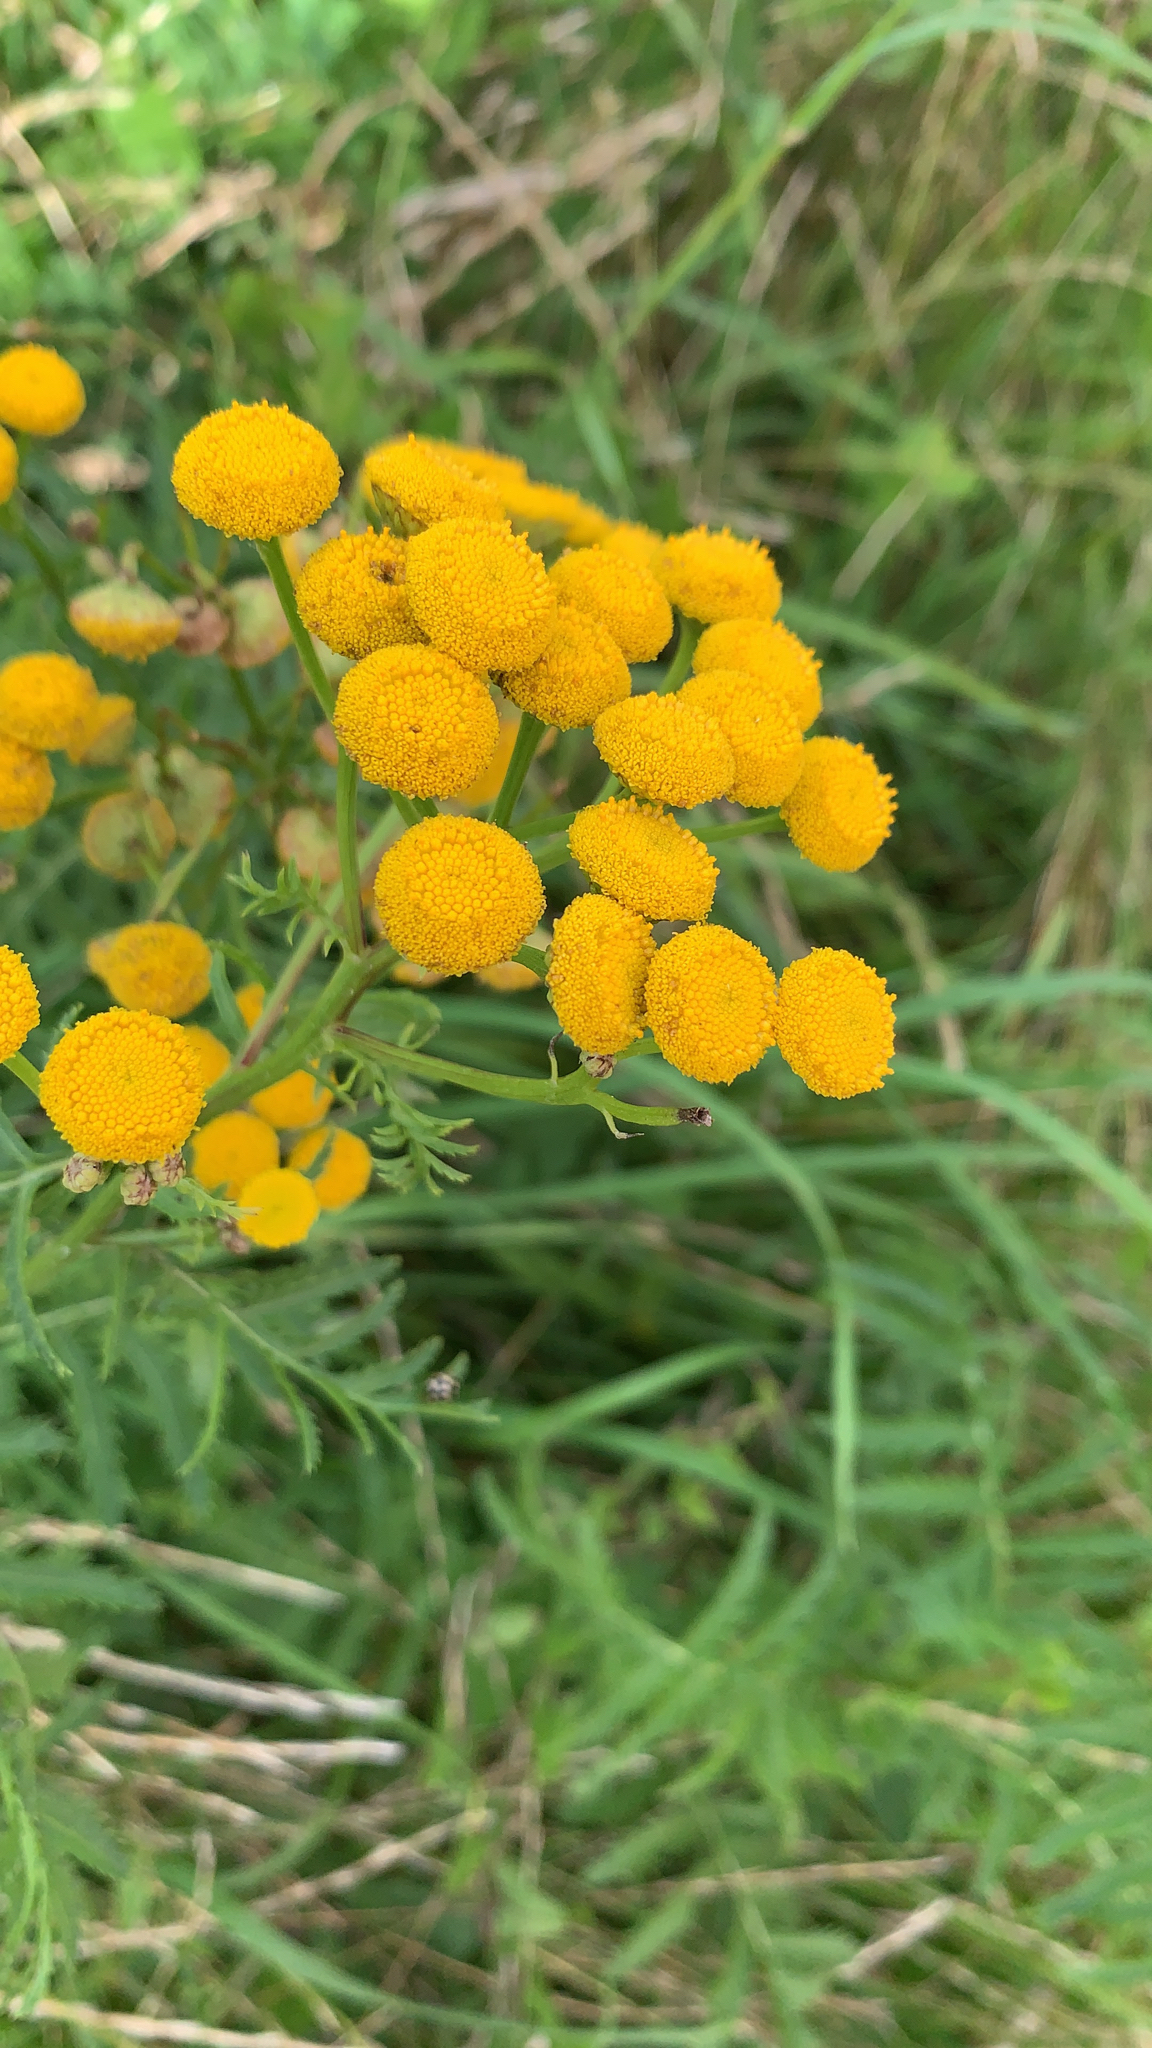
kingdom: Plantae
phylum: Tracheophyta
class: Magnoliopsida
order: Asterales
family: Asteraceae
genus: Tanacetum
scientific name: Tanacetum vulgare
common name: Common tansy
